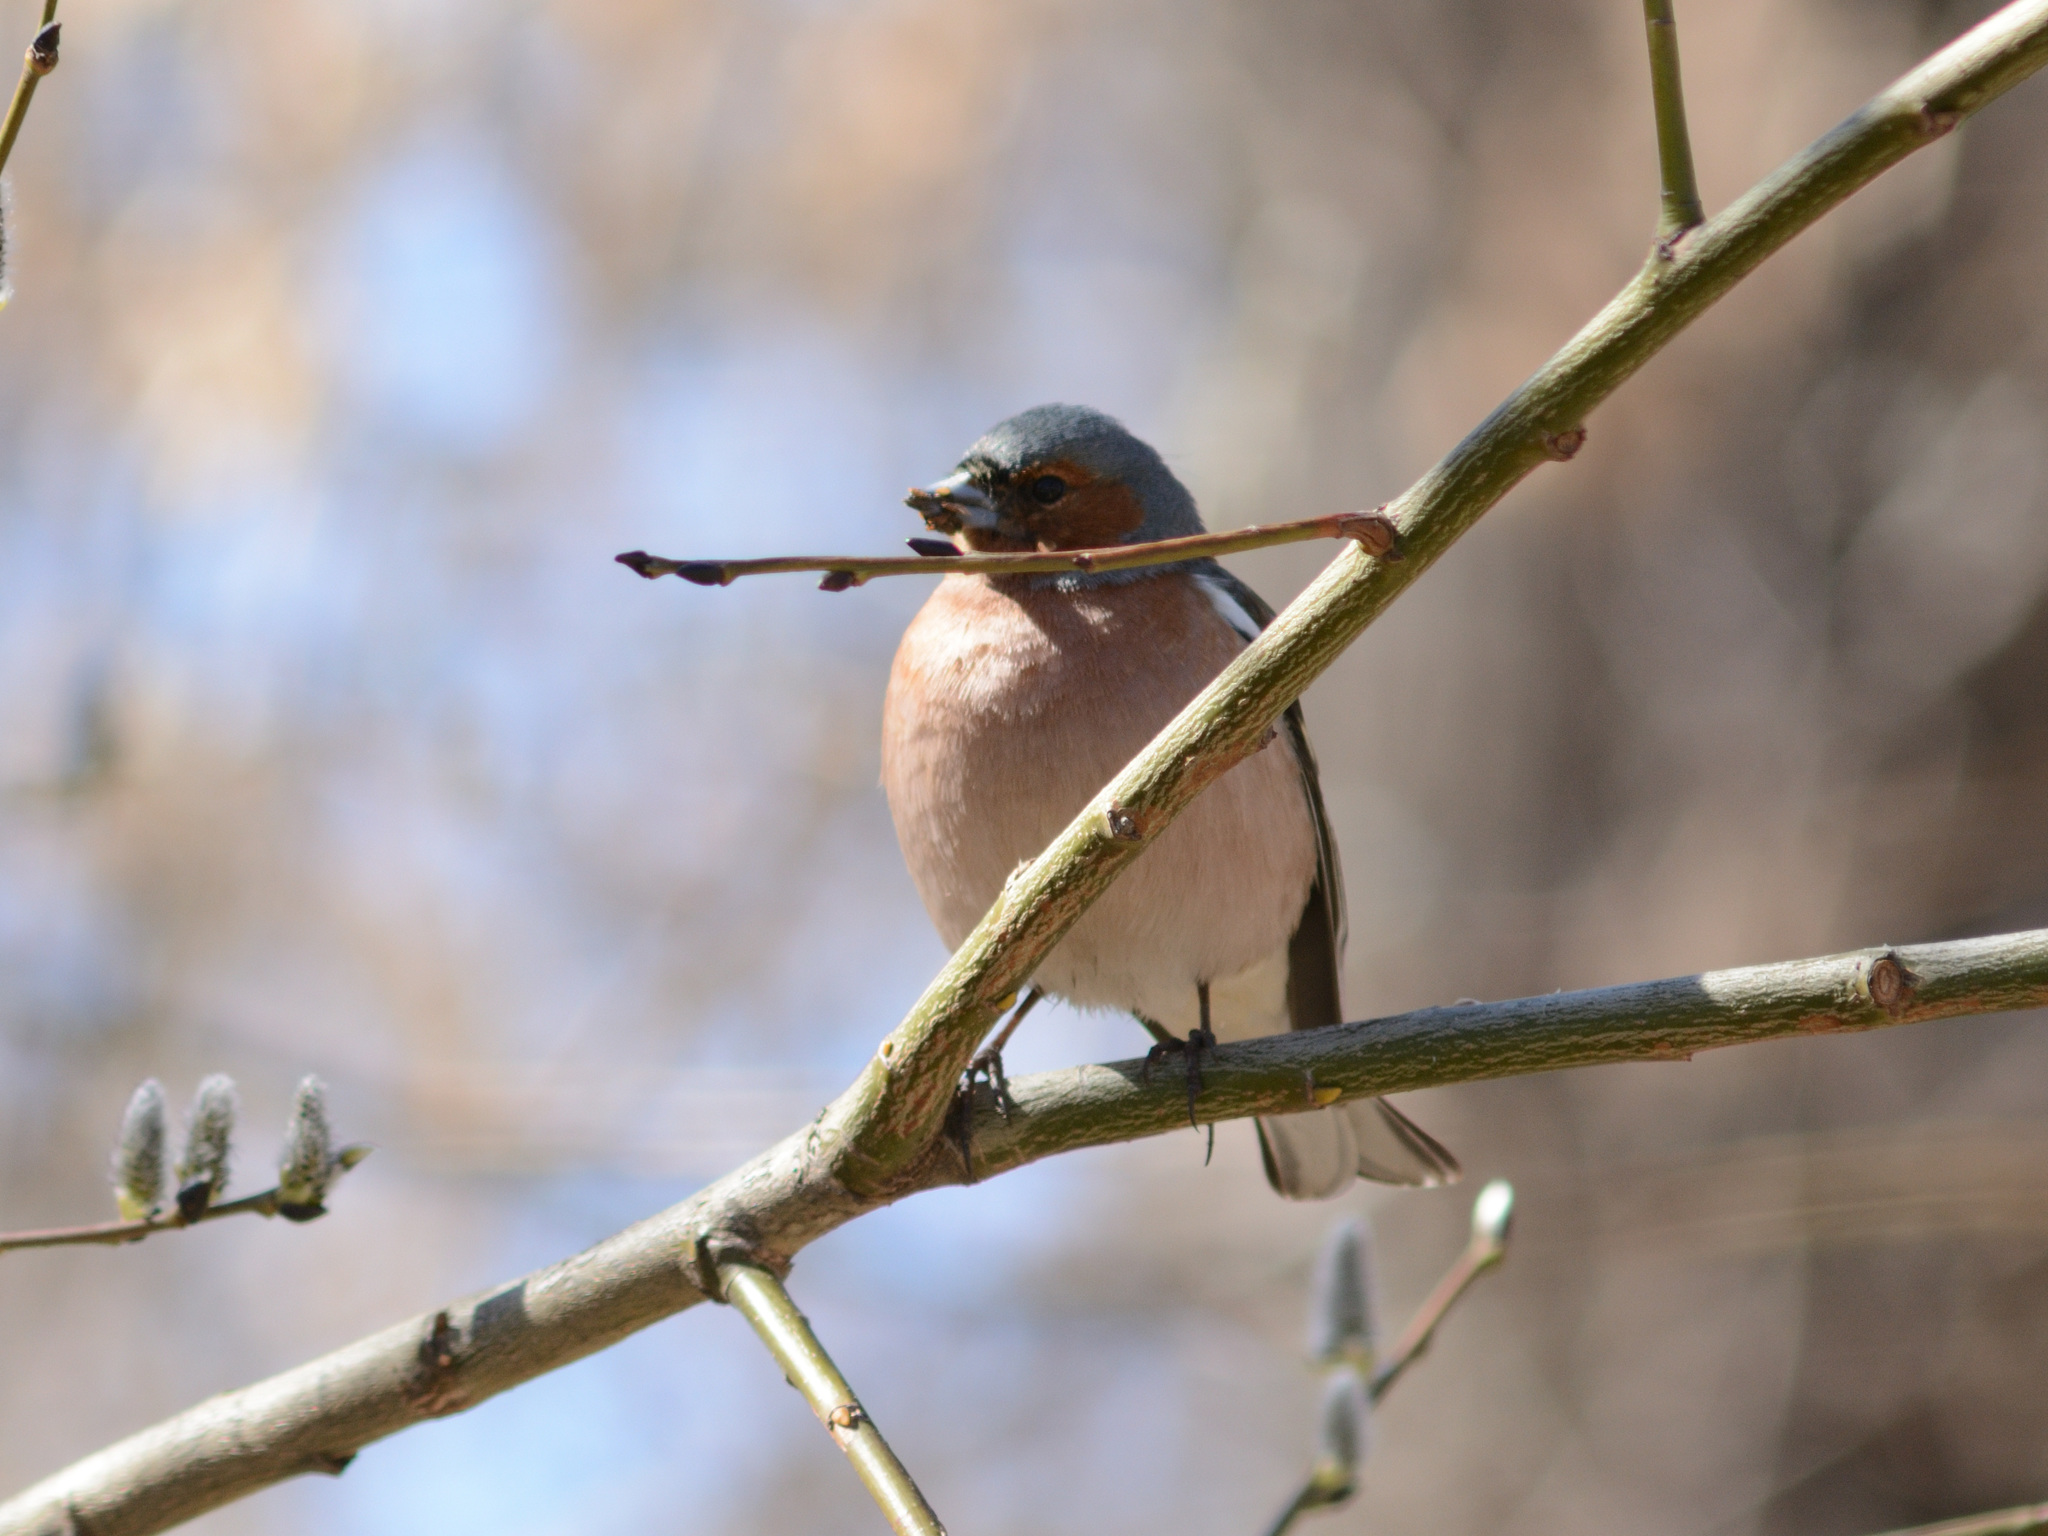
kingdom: Animalia
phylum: Chordata
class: Aves
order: Passeriformes
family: Fringillidae
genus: Fringilla
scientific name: Fringilla coelebs
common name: Common chaffinch
